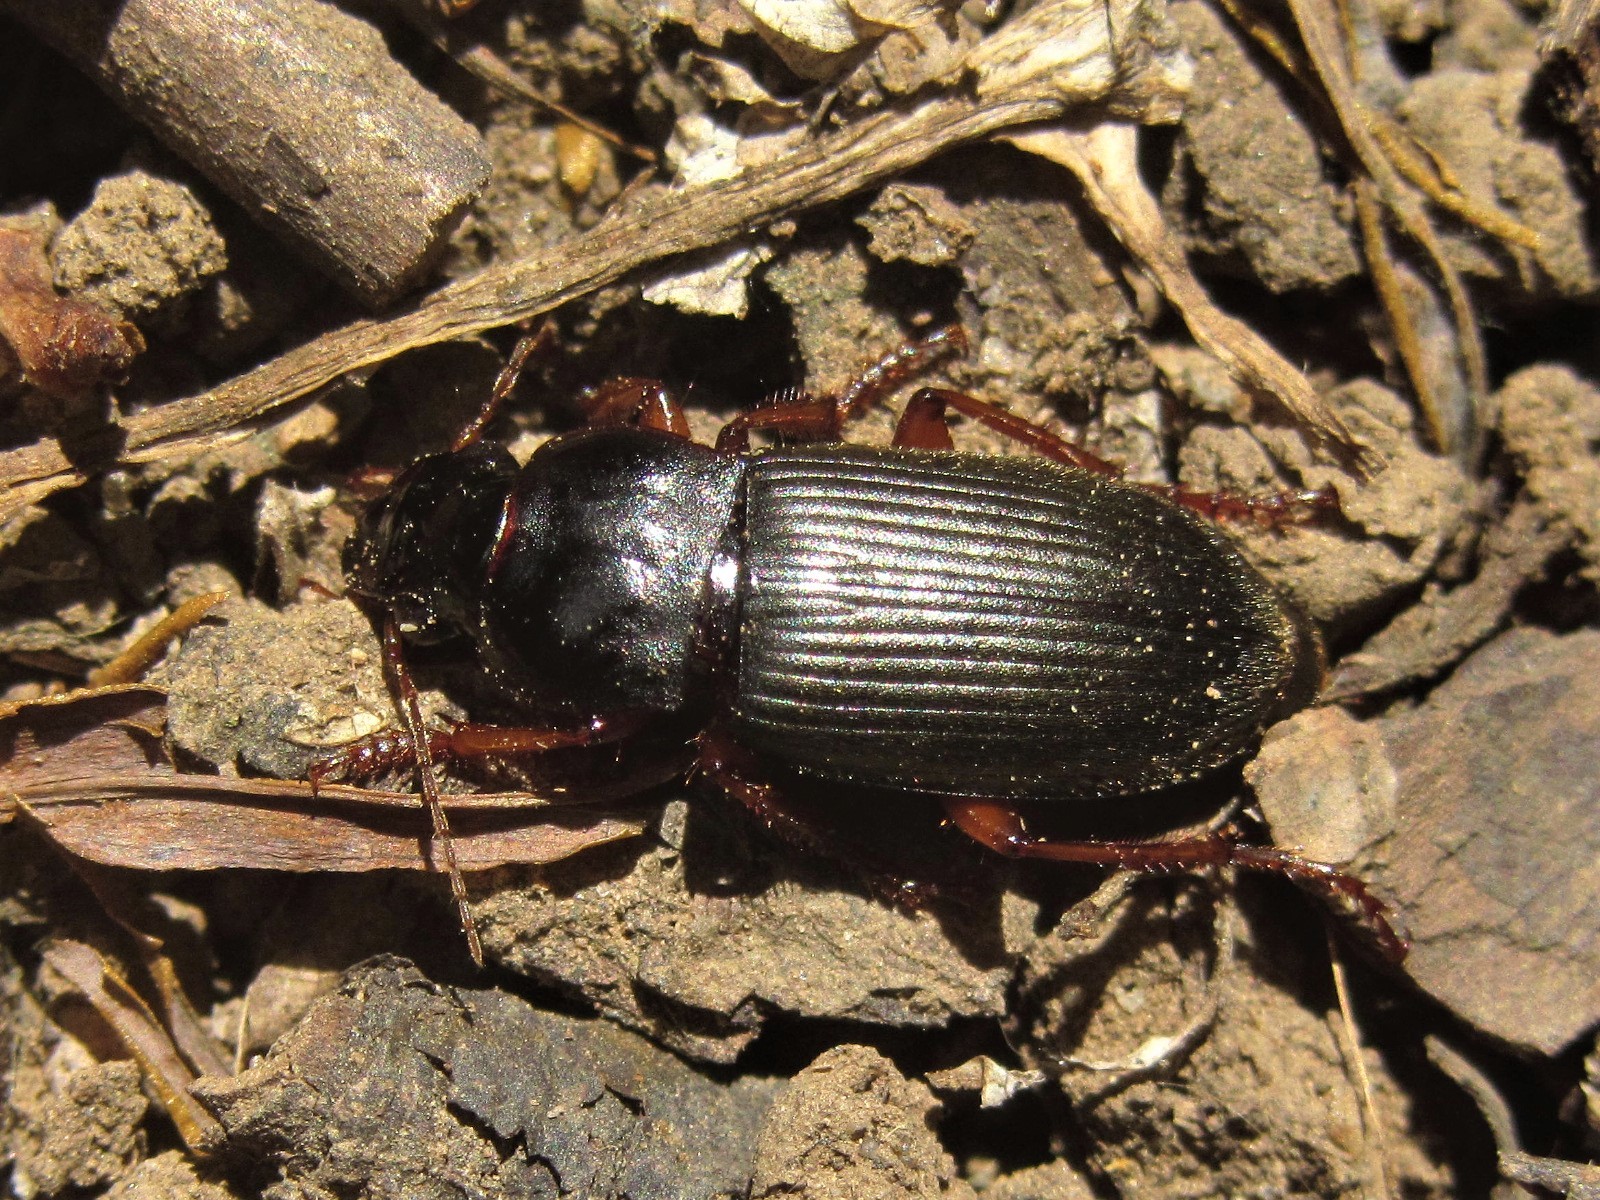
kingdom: Animalia
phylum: Arthropoda
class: Insecta
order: Coleoptera
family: Carabidae
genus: Harpalus
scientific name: Harpalus rufipes
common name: Strawberry harp ground beetle
